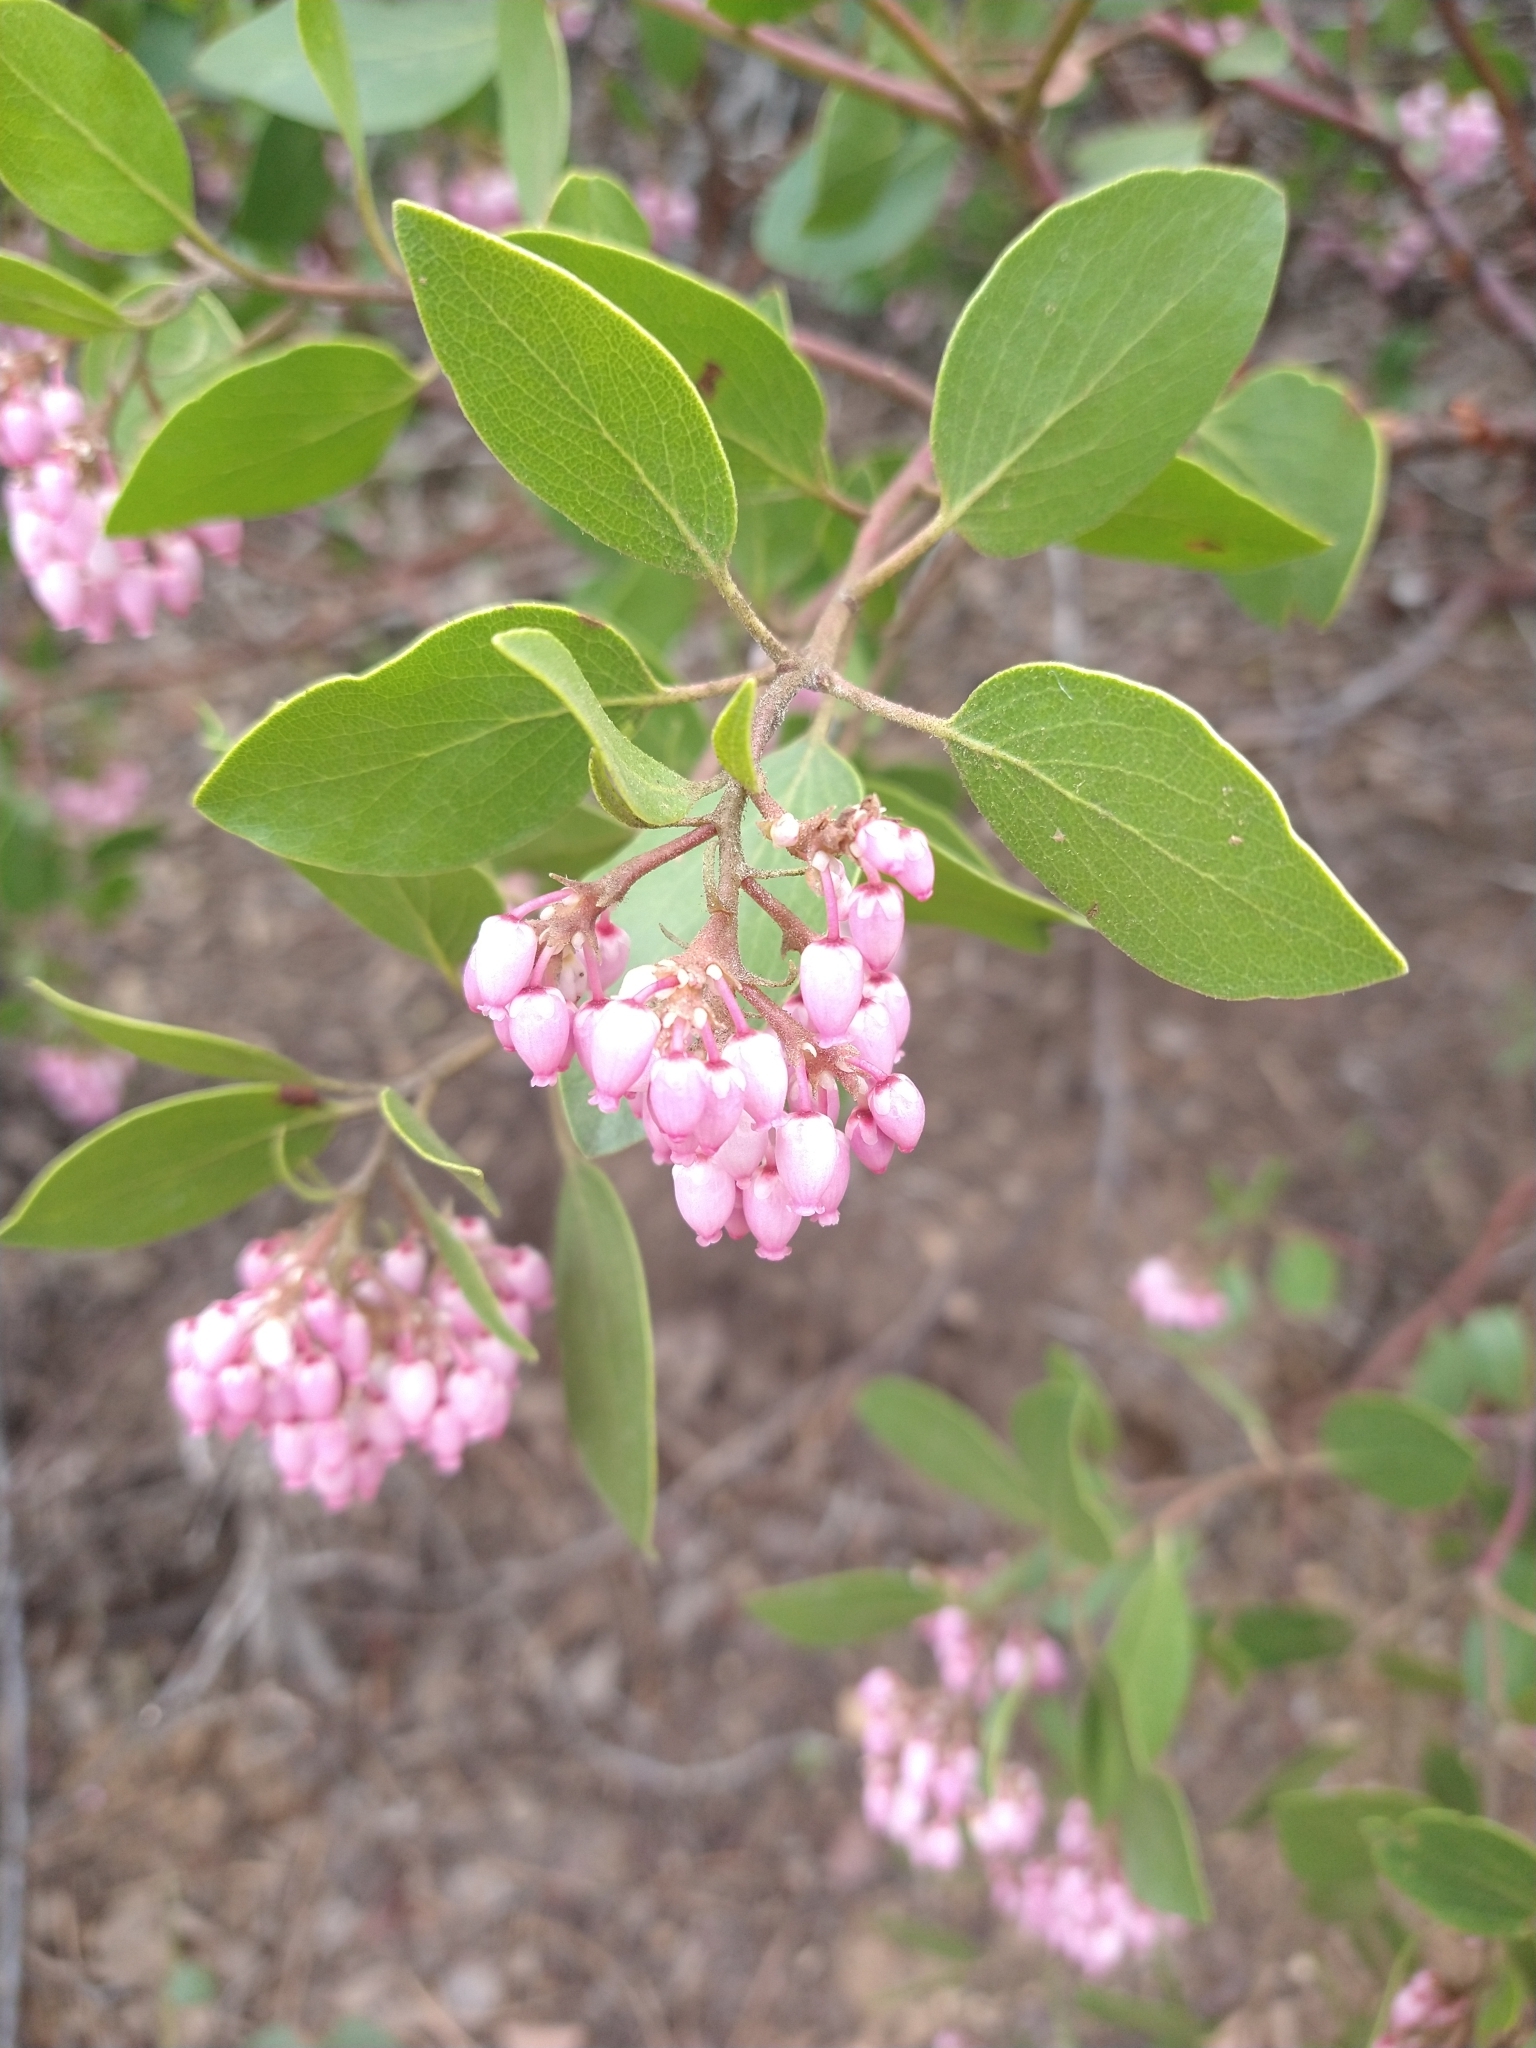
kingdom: Plantae
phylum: Tracheophyta
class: Magnoliopsida
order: Ericales
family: Ericaceae
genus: Arctostaphylos
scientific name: Arctostaphylos patula
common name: Green-leaf manzanita
